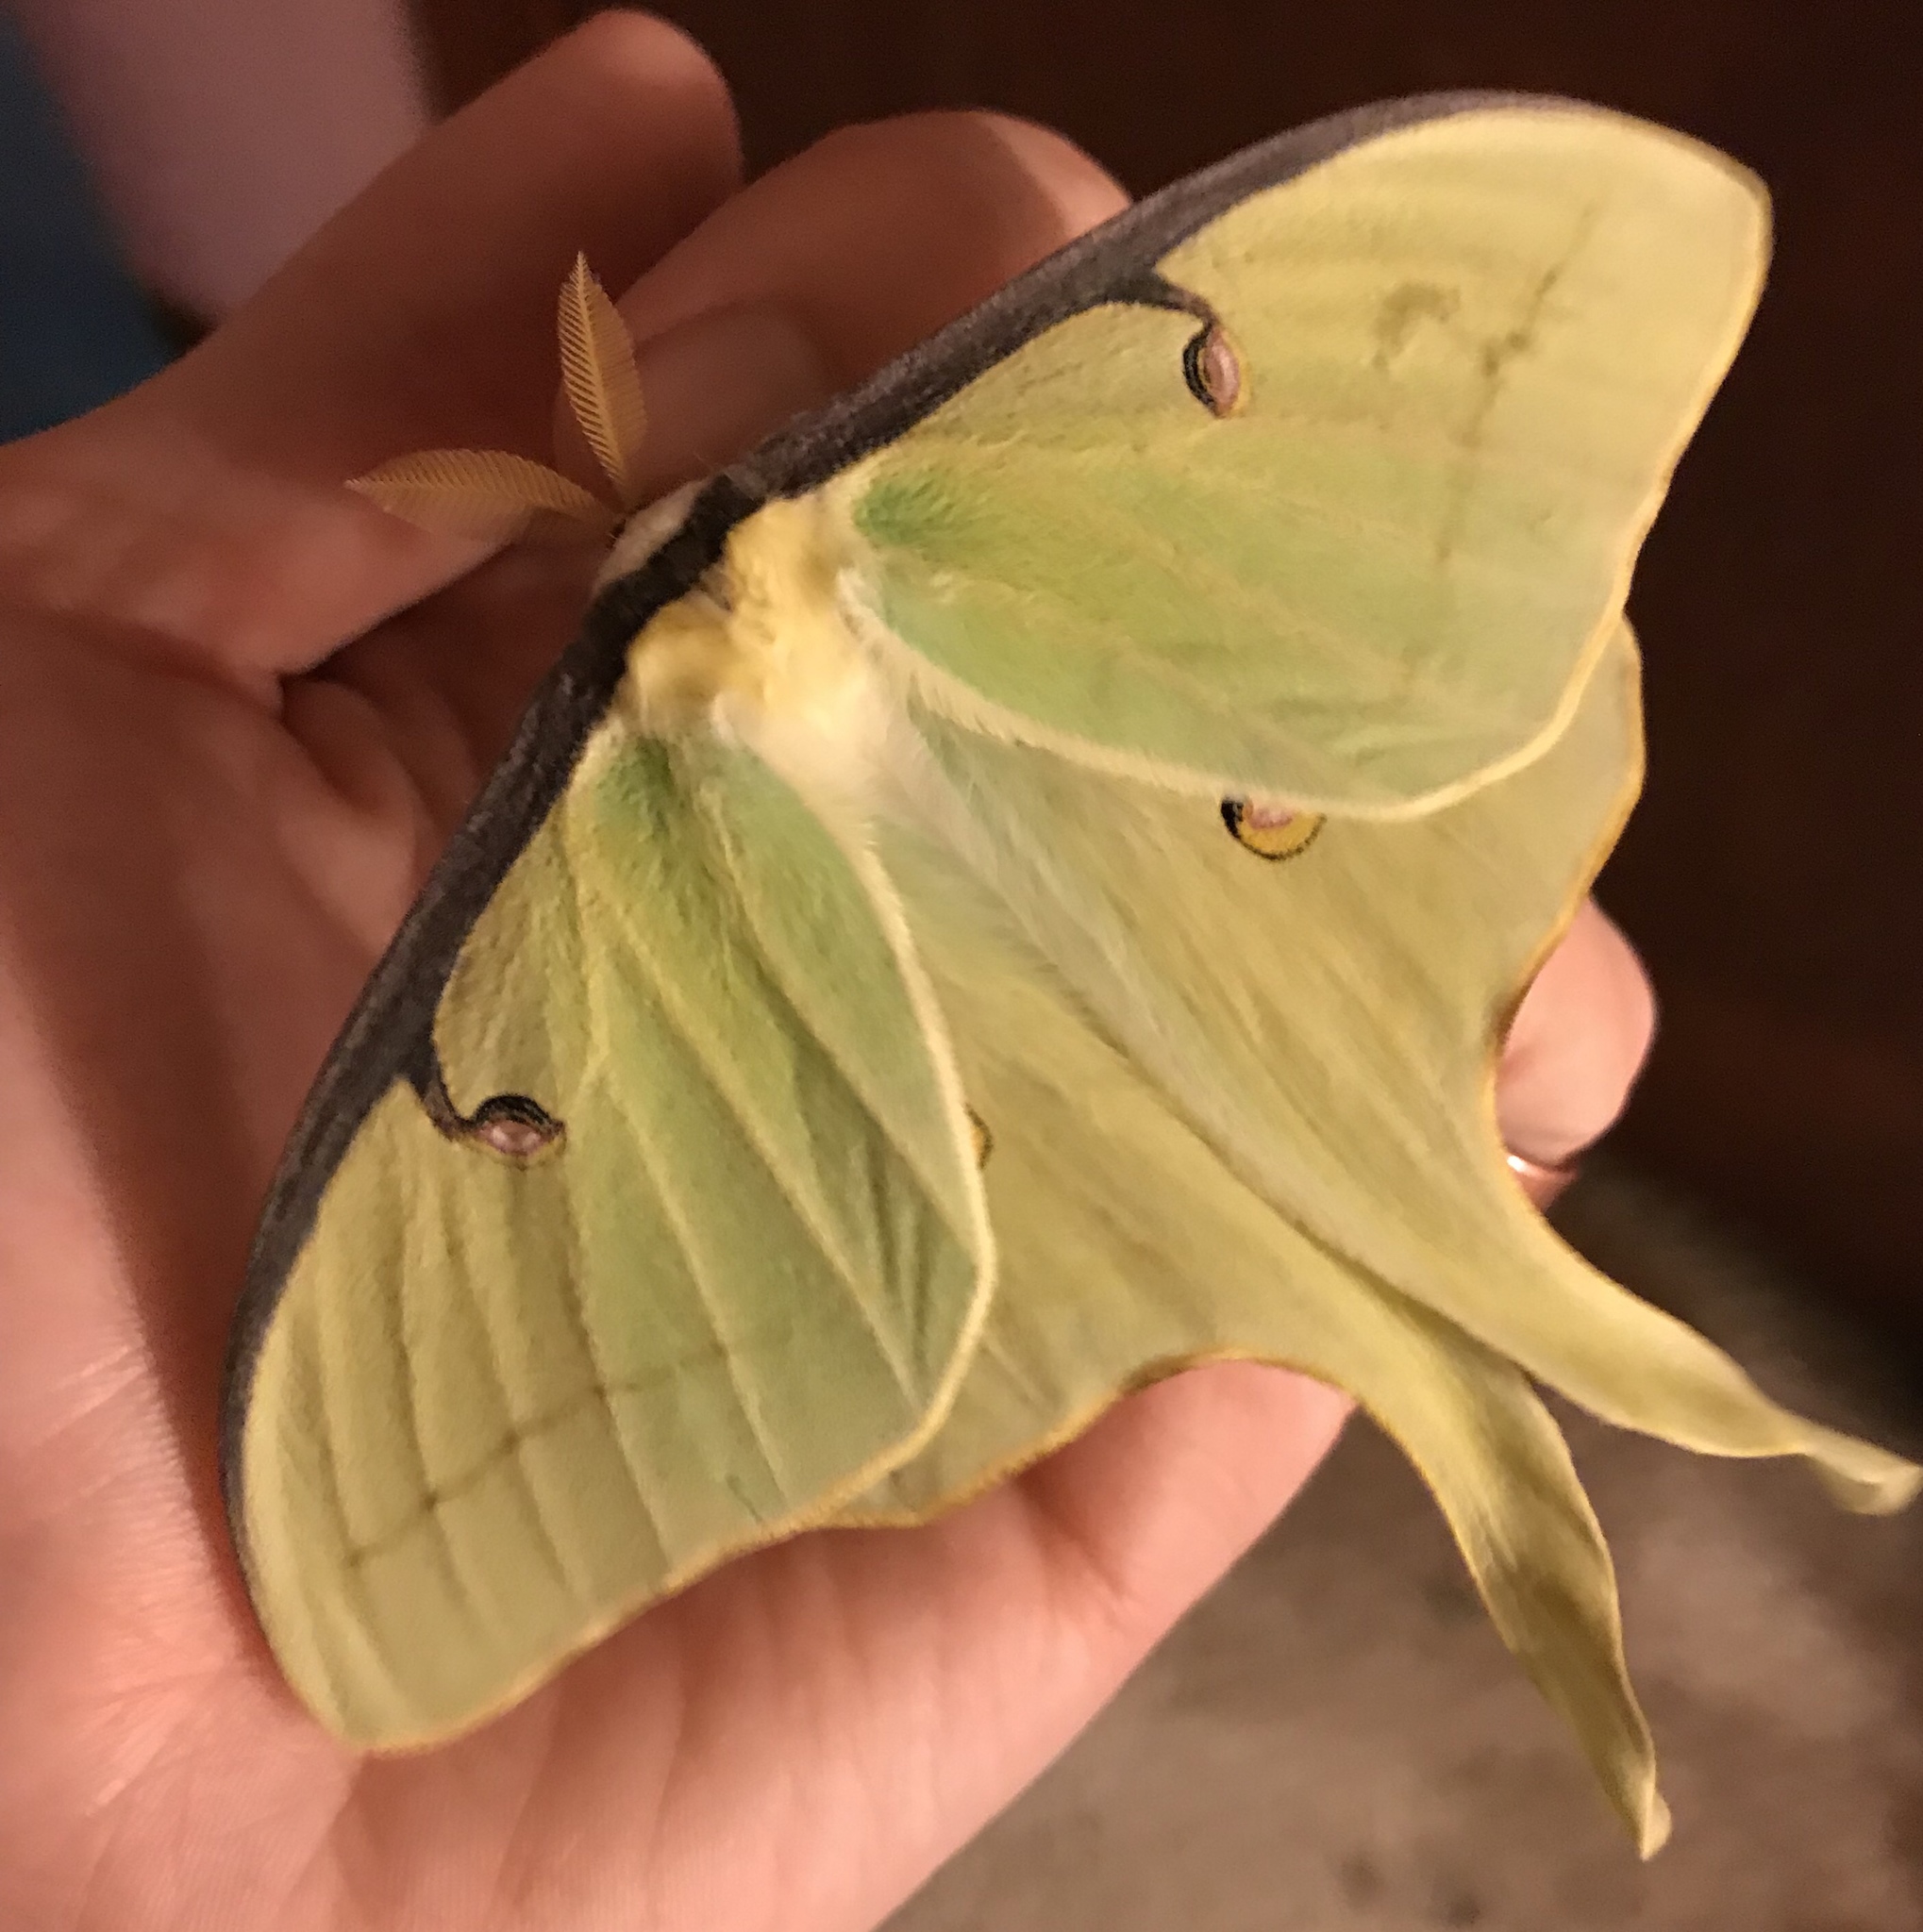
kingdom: Animalia
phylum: Arthropoda
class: Insecta
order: Lepidoptera
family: Saturniidae
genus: Actias
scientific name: Actias luna
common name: Luna moth
